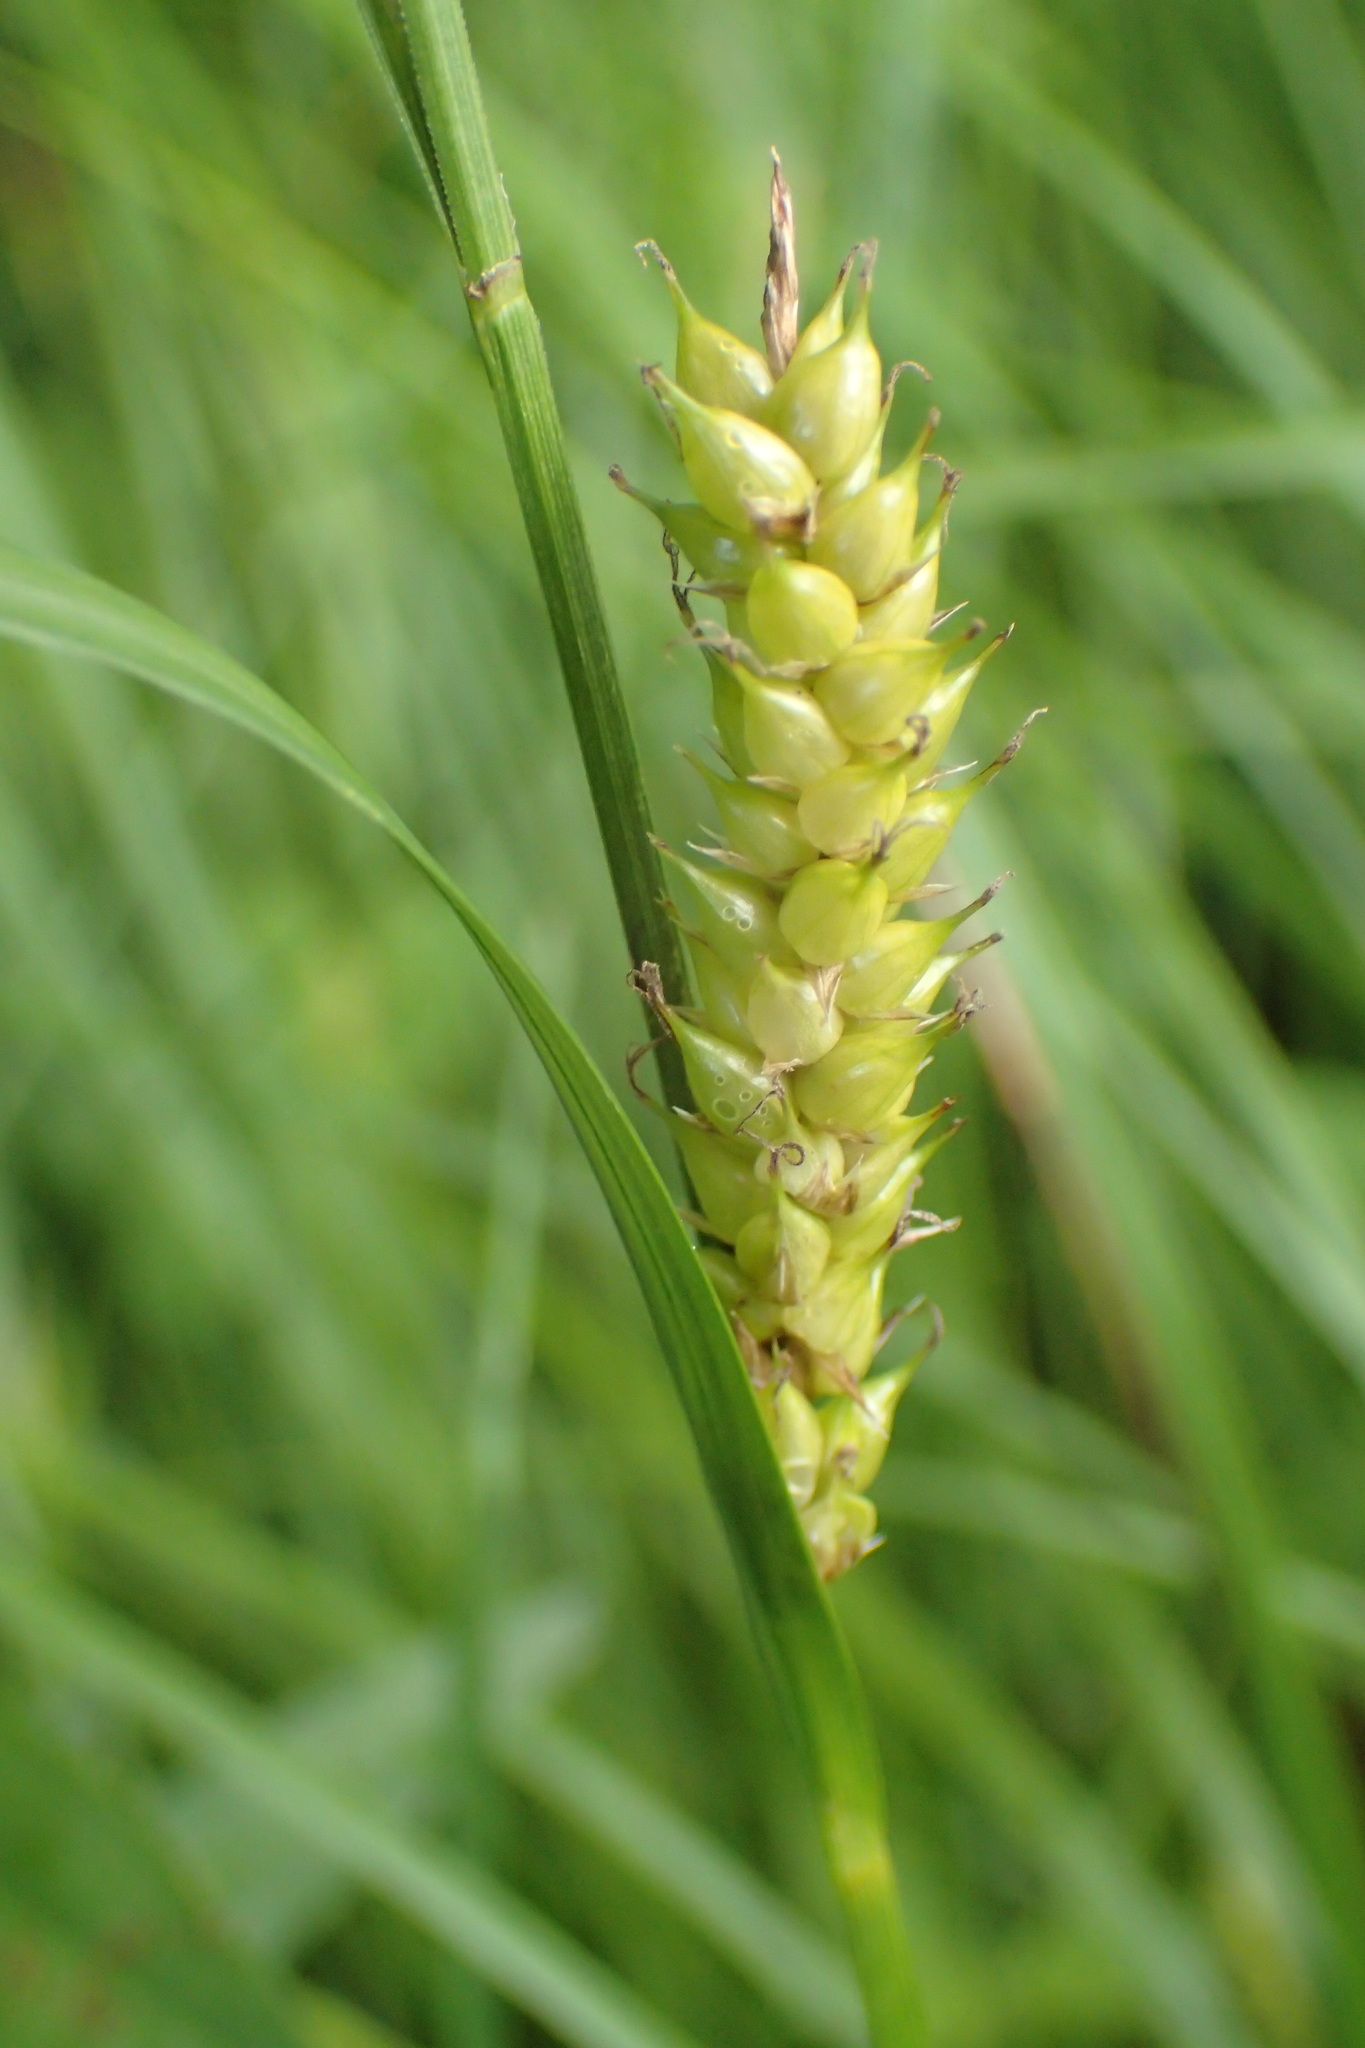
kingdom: Plantae
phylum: Tracheophyta
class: Liliopsida
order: Poales
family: Cyperaceae
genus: Carex
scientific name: Carex vesicaria
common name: Bladder-sedge
